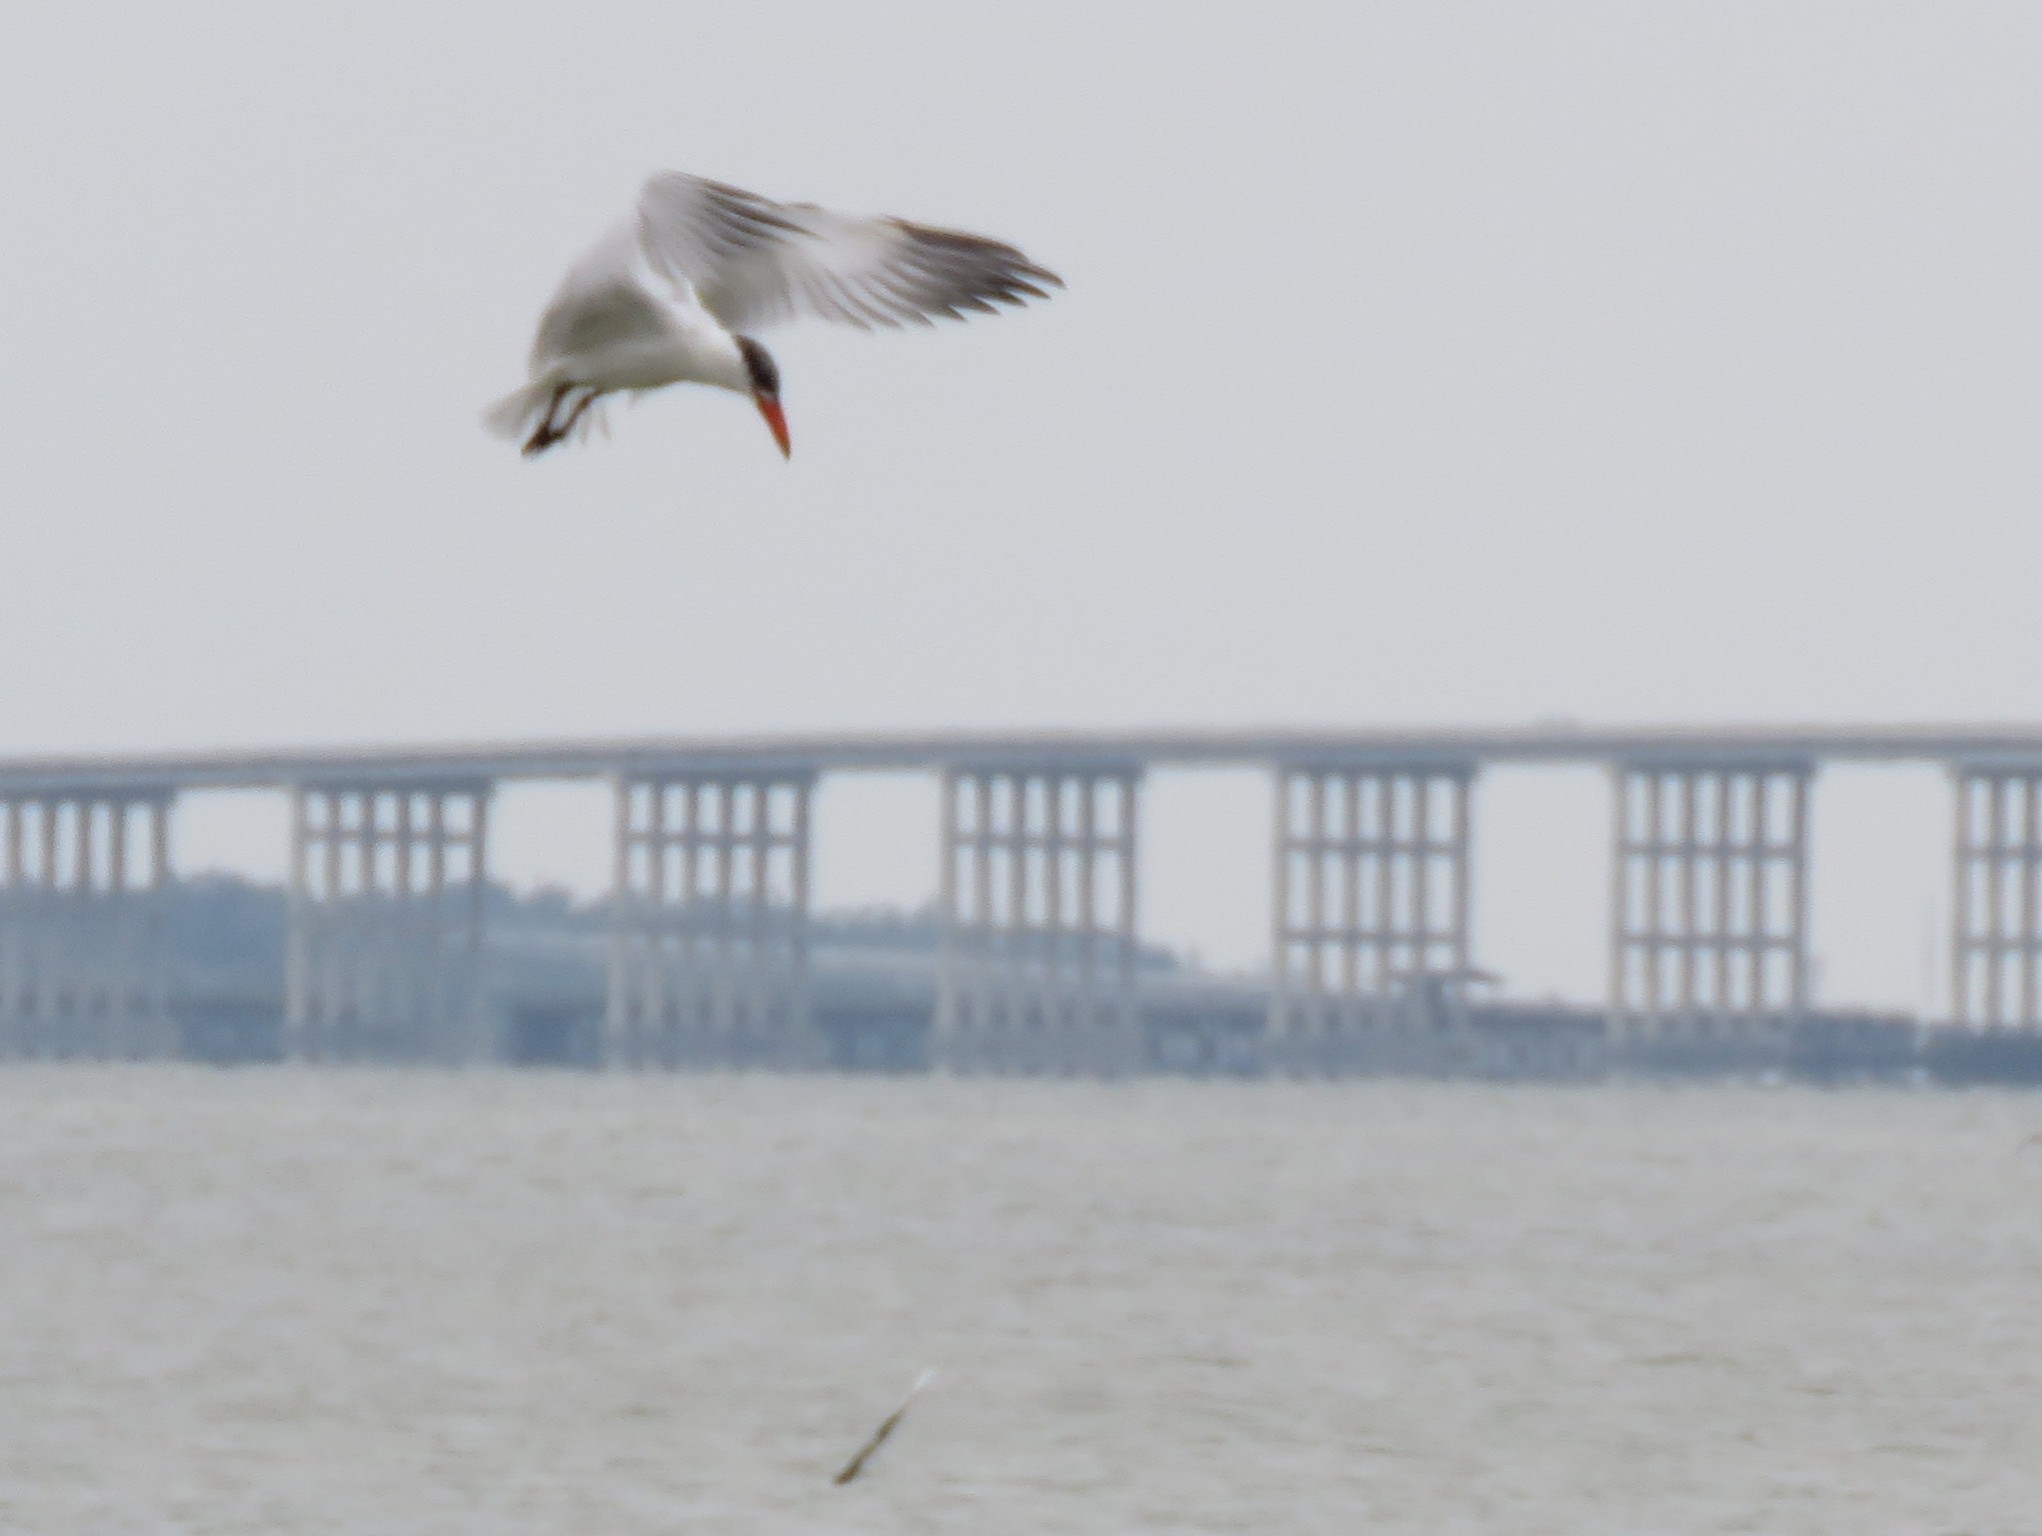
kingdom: Animalia
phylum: Chordata
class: Aves
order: Charadriiformes
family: Laridae
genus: Hydroprogne
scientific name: Hydroprogne caspia
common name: Caspian tern
